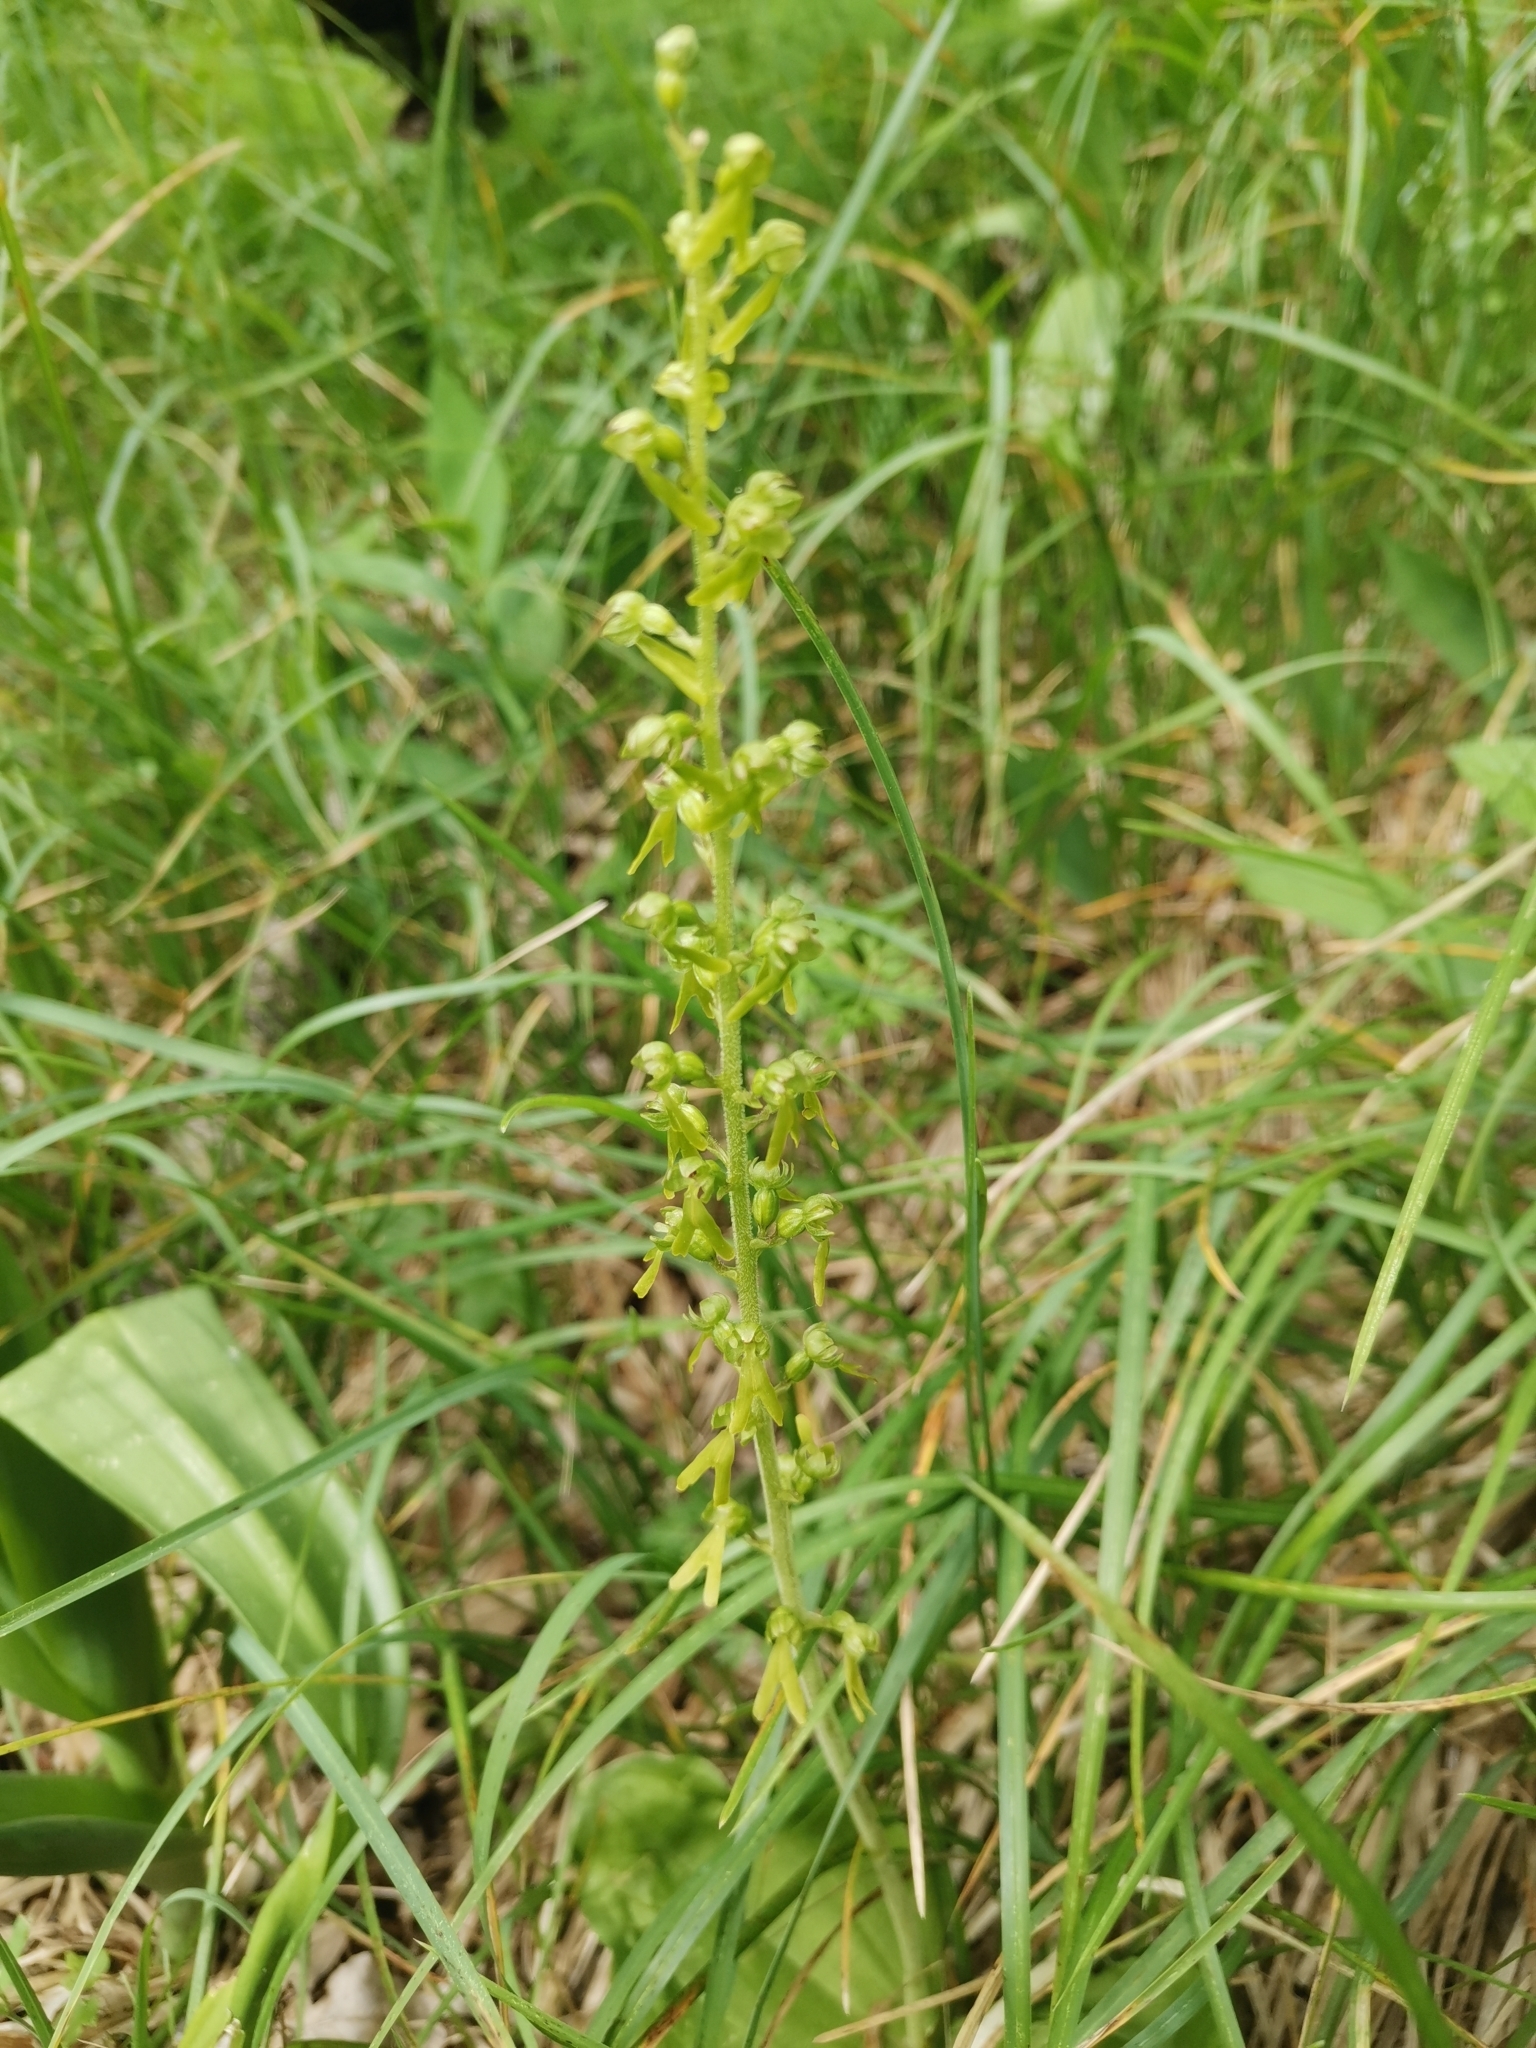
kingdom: Plantae
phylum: Tracheophyta
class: Liliopsida
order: Asparagales
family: Orchidaceae
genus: Neottia
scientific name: Neottia ovata
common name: Common twayblade
